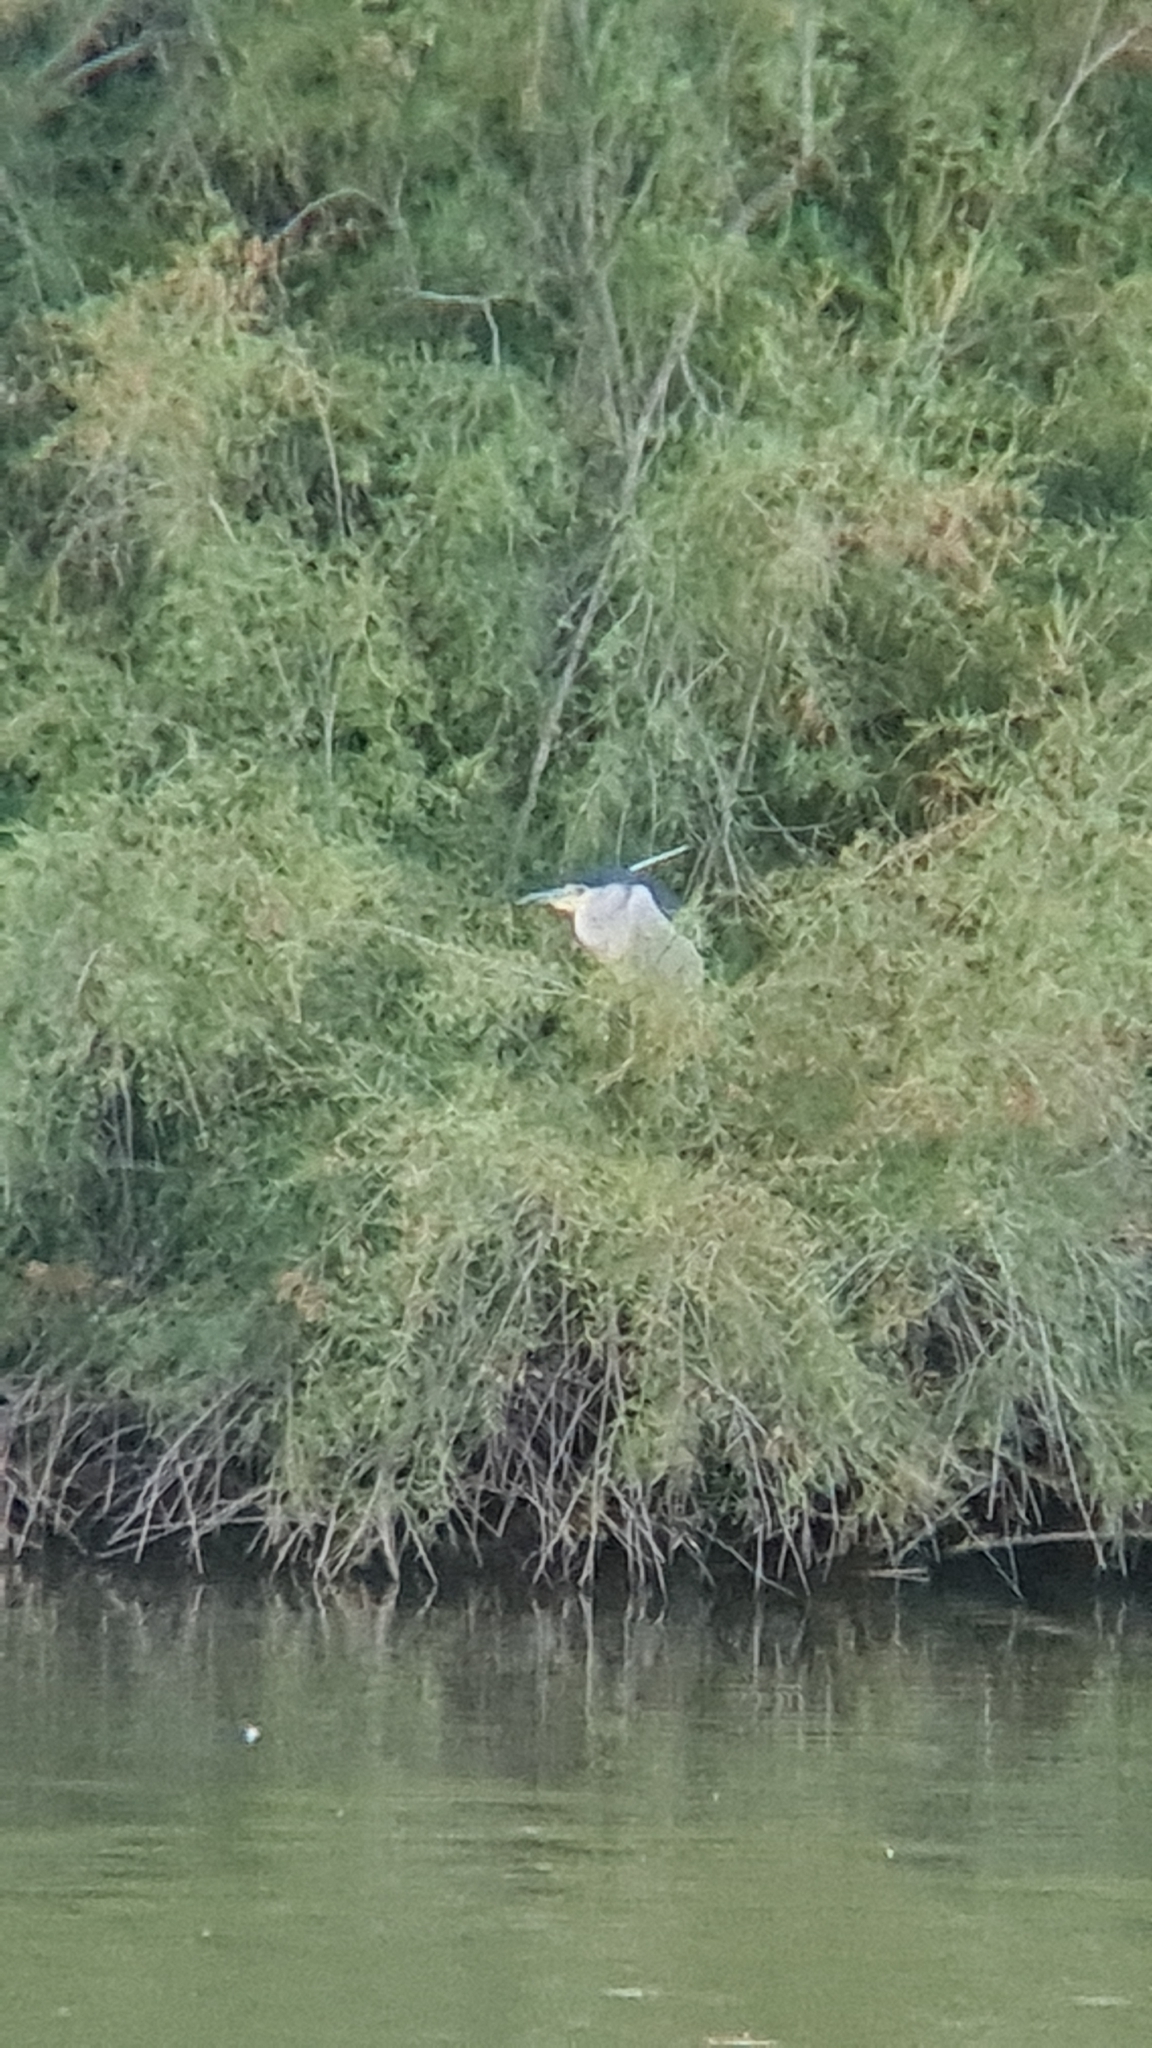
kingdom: Animalia
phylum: Chordata
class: Aves
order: Pelecaniformes
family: Ardeidae
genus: Nycticorax
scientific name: Nycticorax nycticorax
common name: Black-crowned night heron
